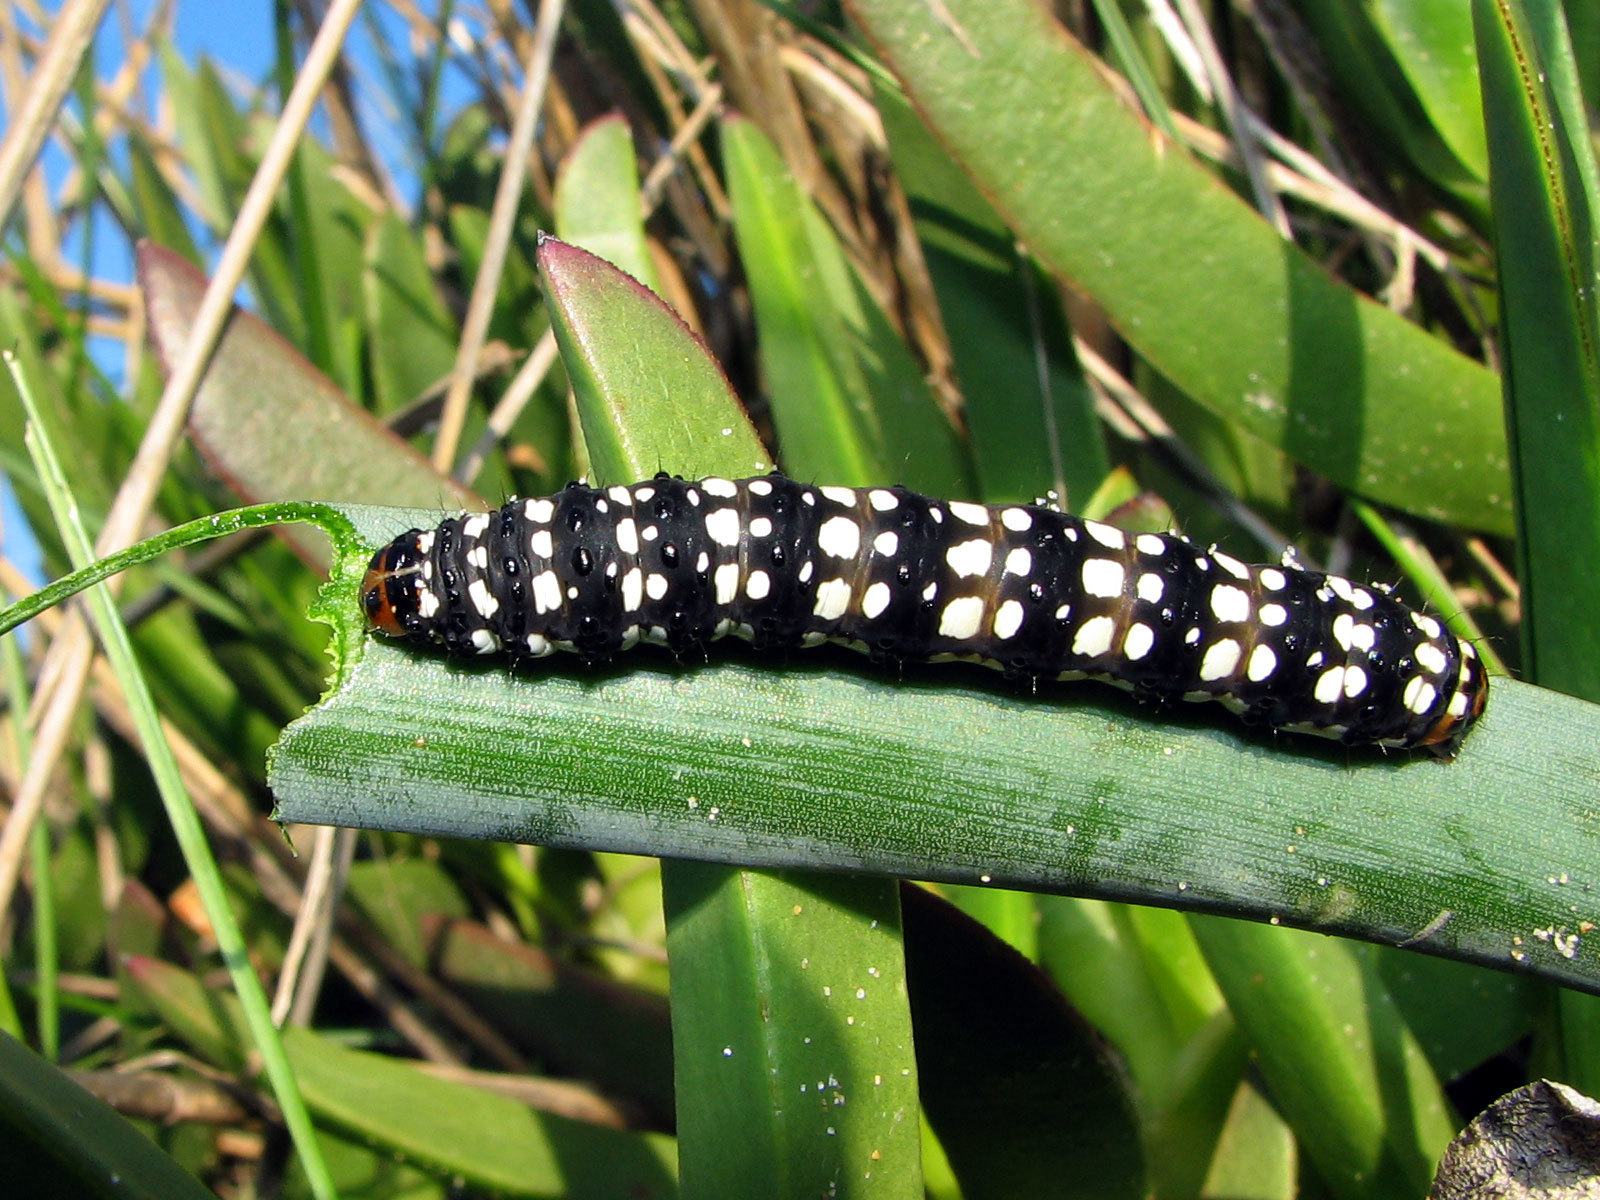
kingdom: Animalia
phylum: Arthropoda
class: Insecta
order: Lepidoptera
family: Noctuidae
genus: Brithys
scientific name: Brithys crini
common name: Kew arches
